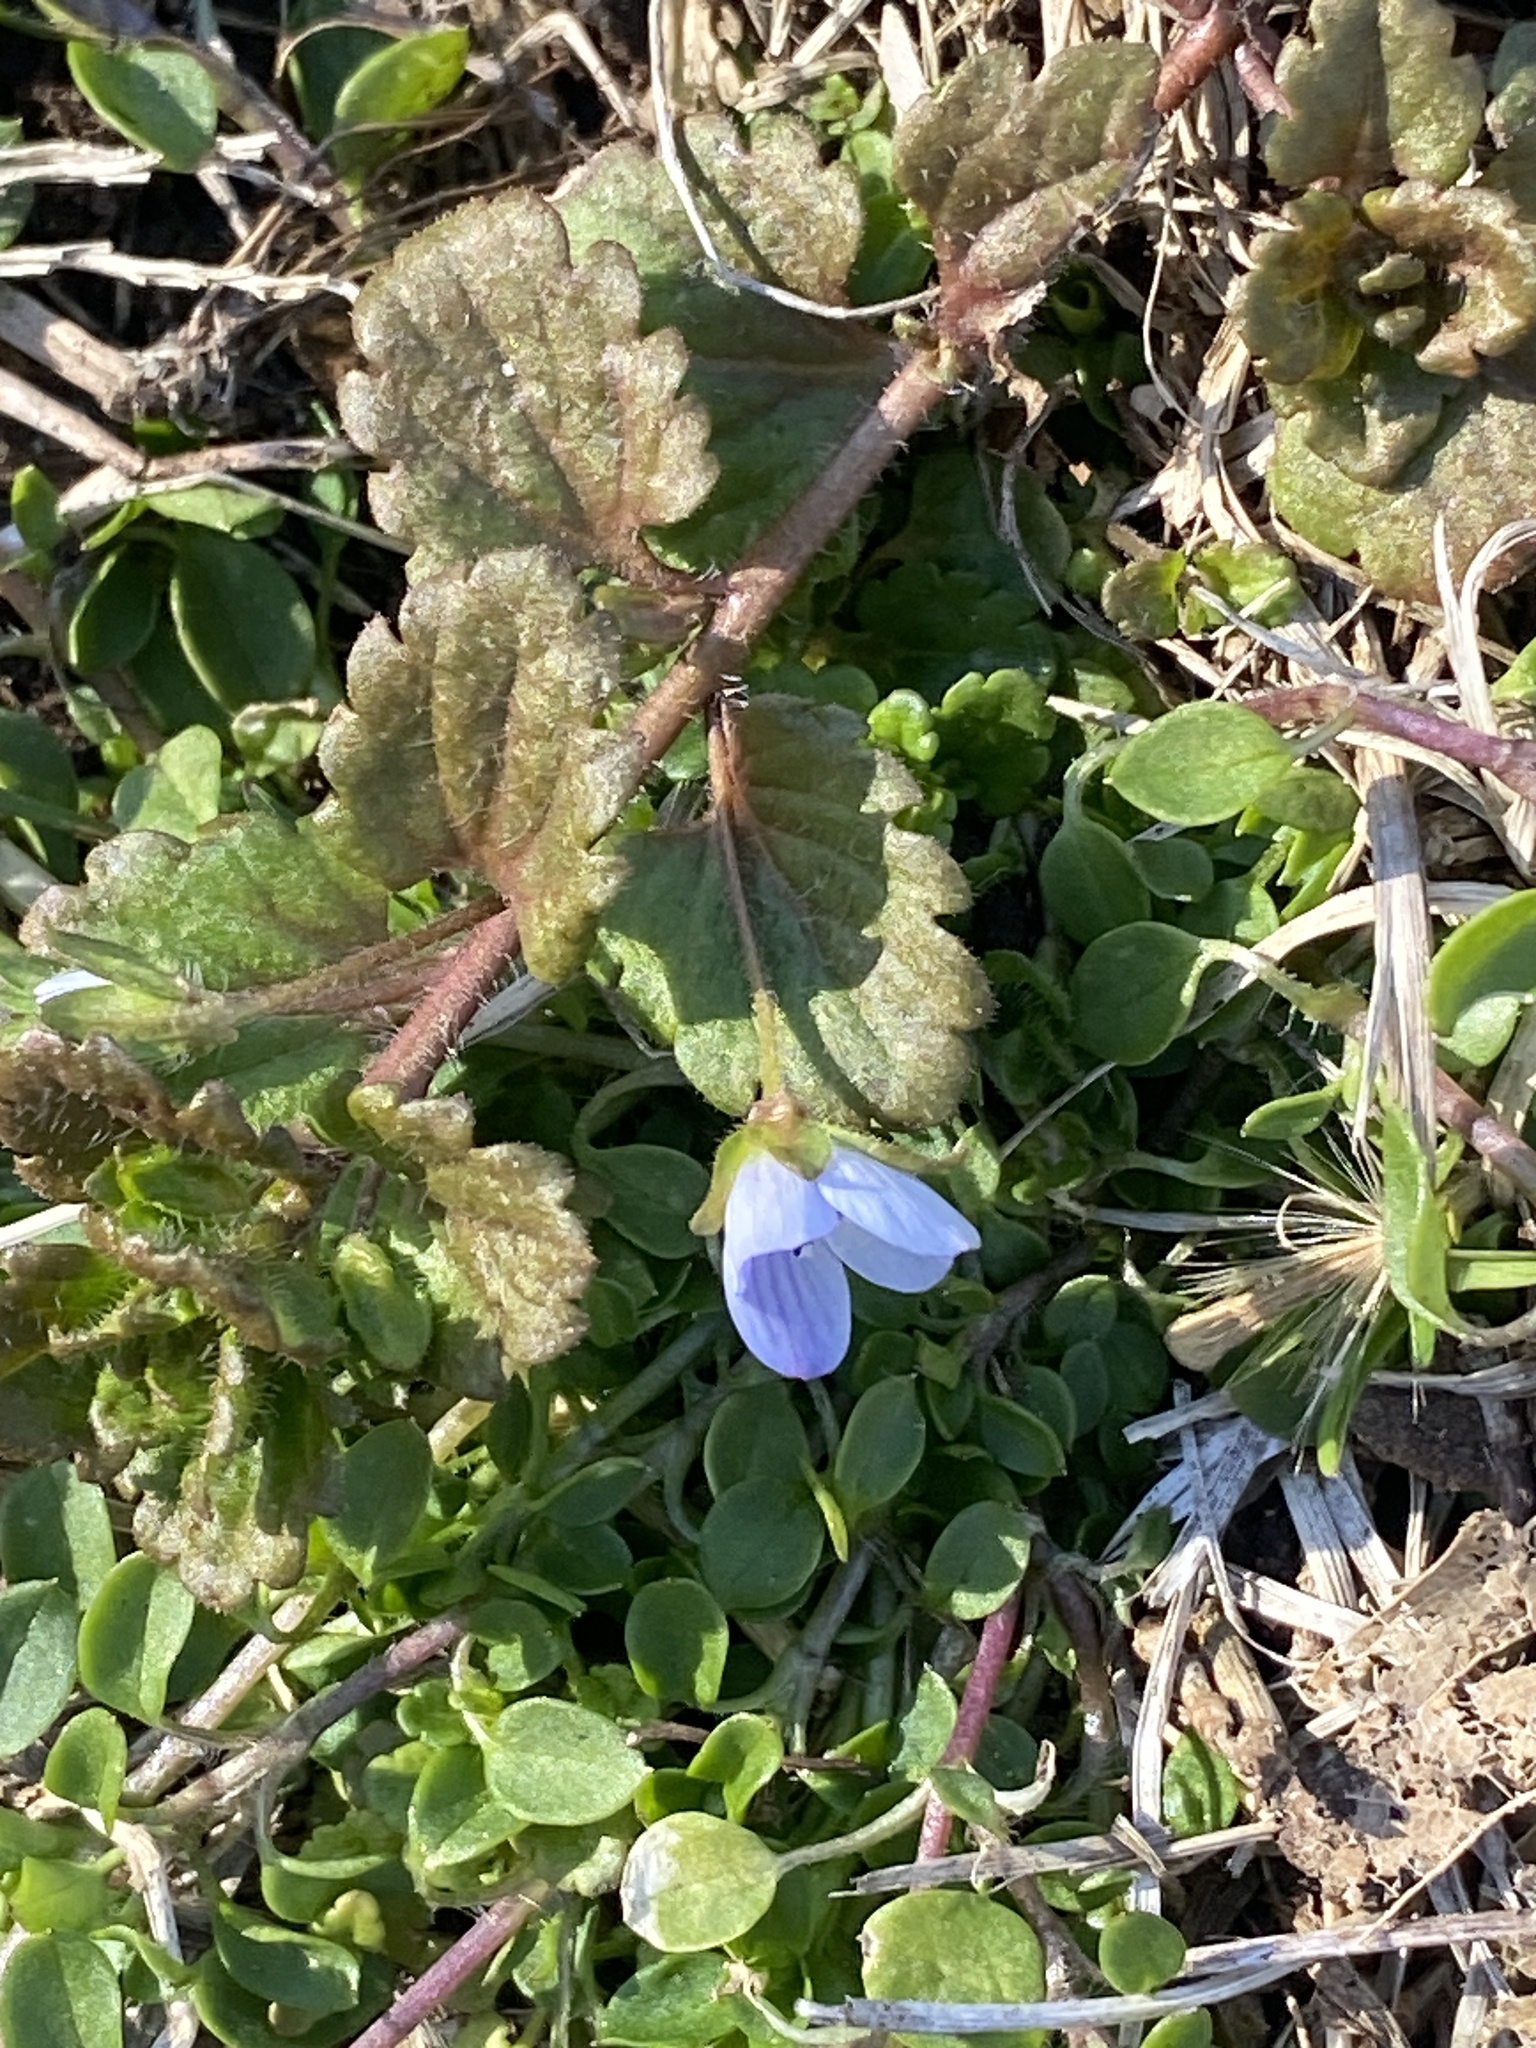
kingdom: Plantae
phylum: Tracheophyta
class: Magnoliopsida
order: Lamiales
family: Plantaginaceae
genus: Veronica
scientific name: Veronica persica
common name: Common field-speedwell
